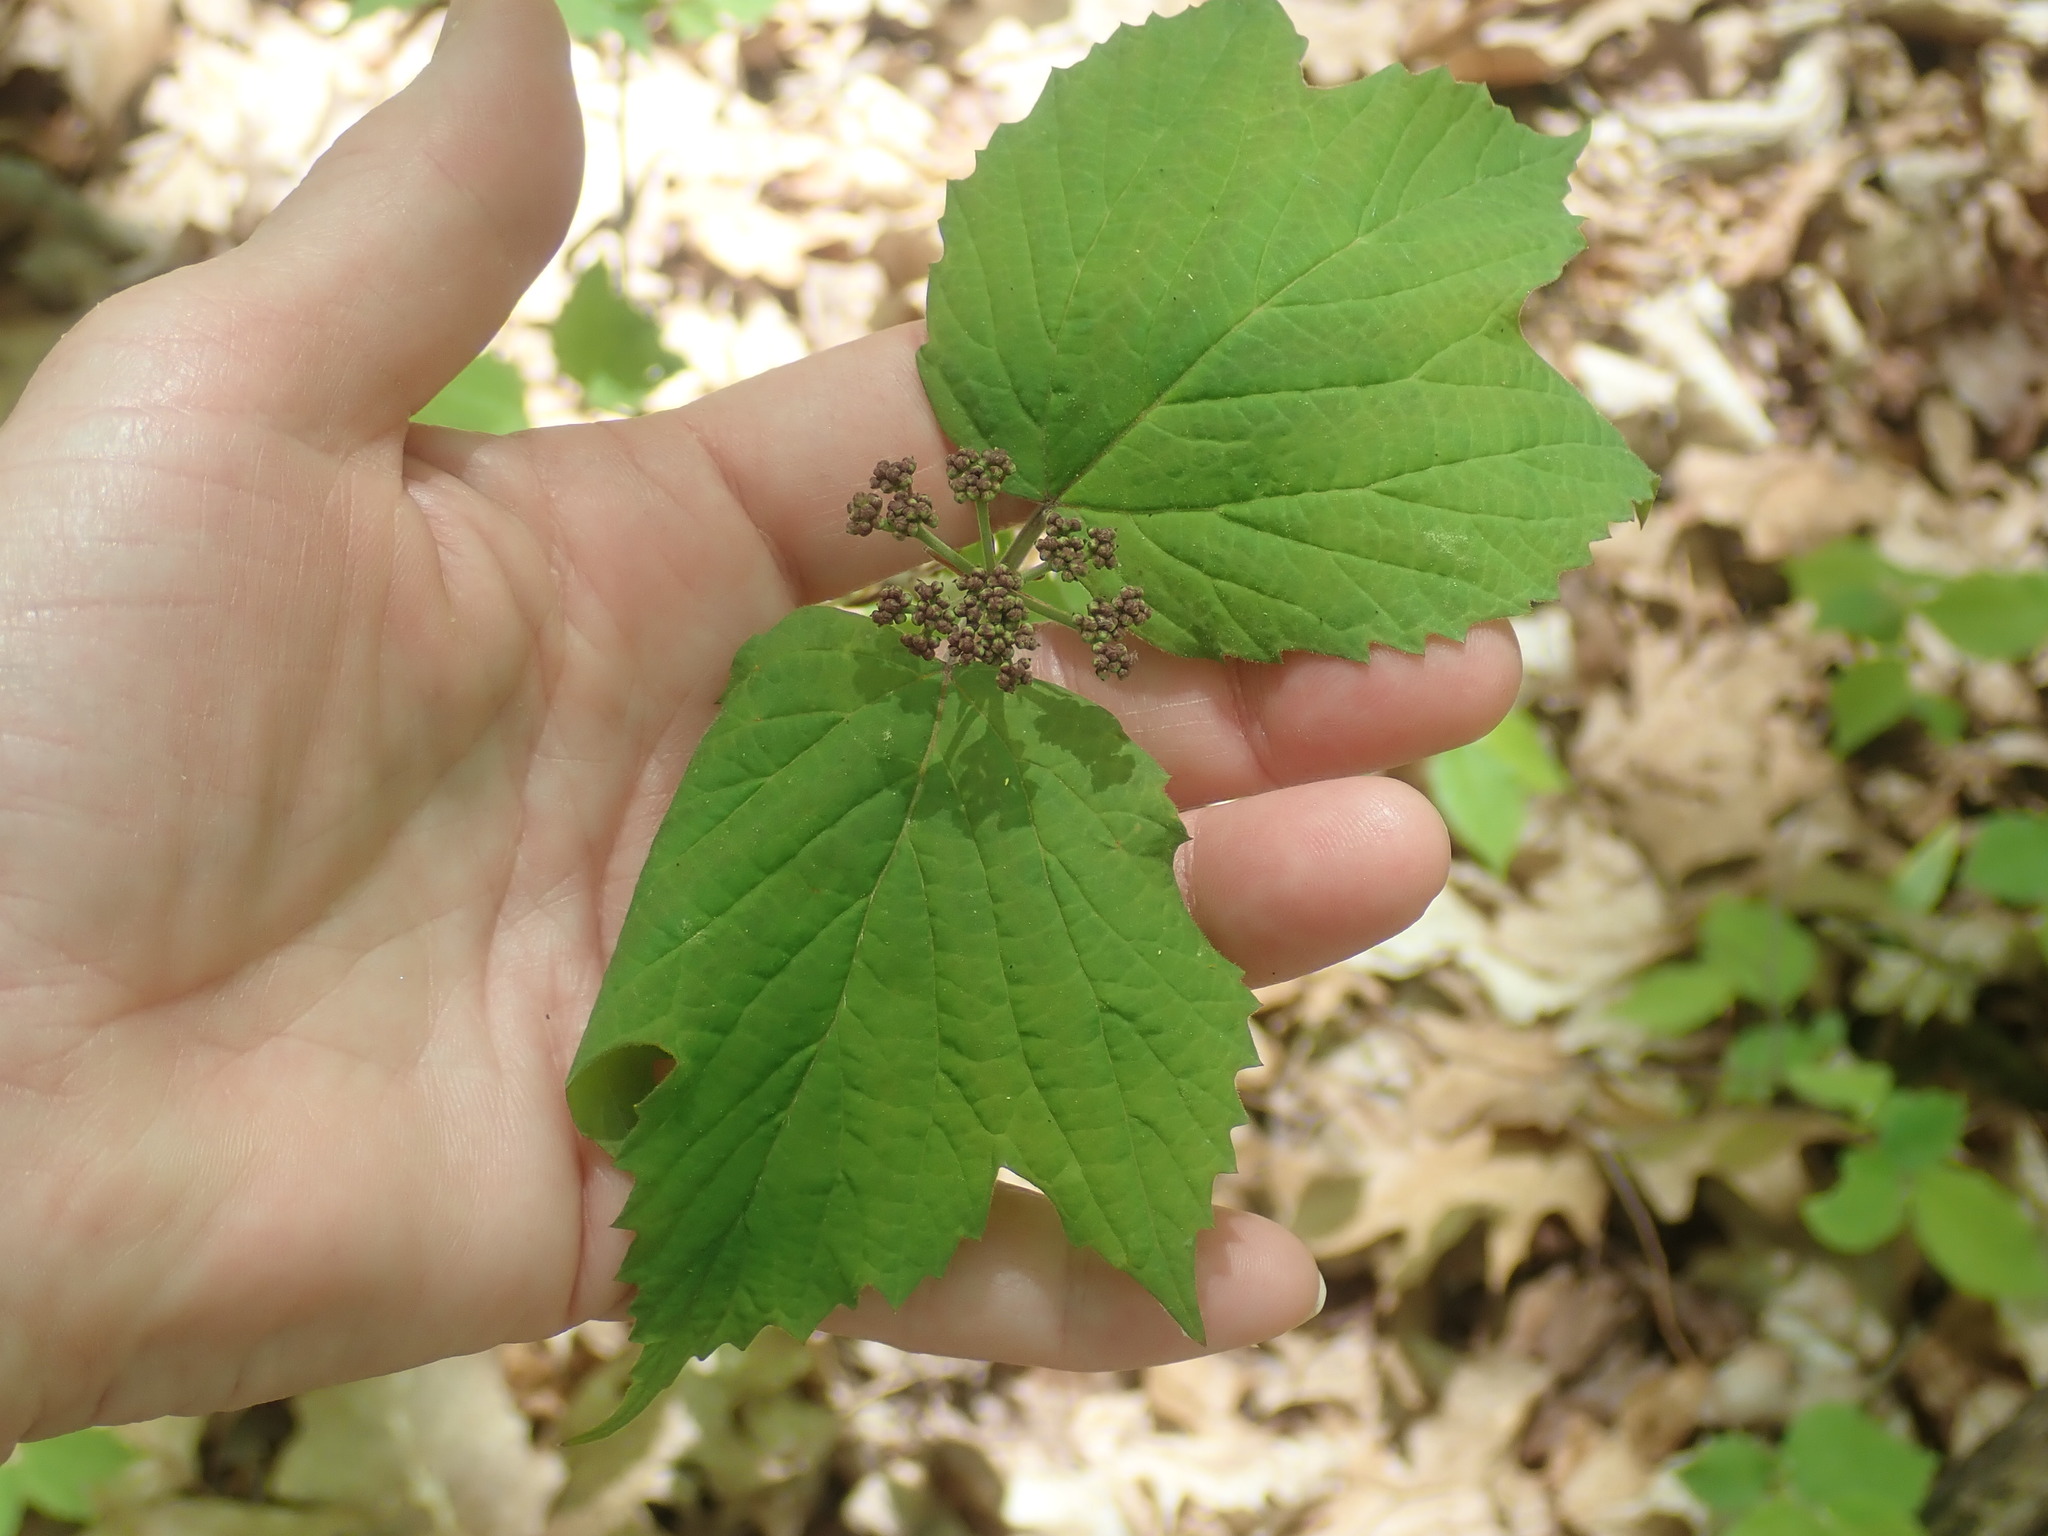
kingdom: Plantae
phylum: Tracheophyta
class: Magnoliopsida
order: Dipsacales
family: Viburnaceae
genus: Viburnum
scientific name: Viburnum acerifolium
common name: Dockmackie
